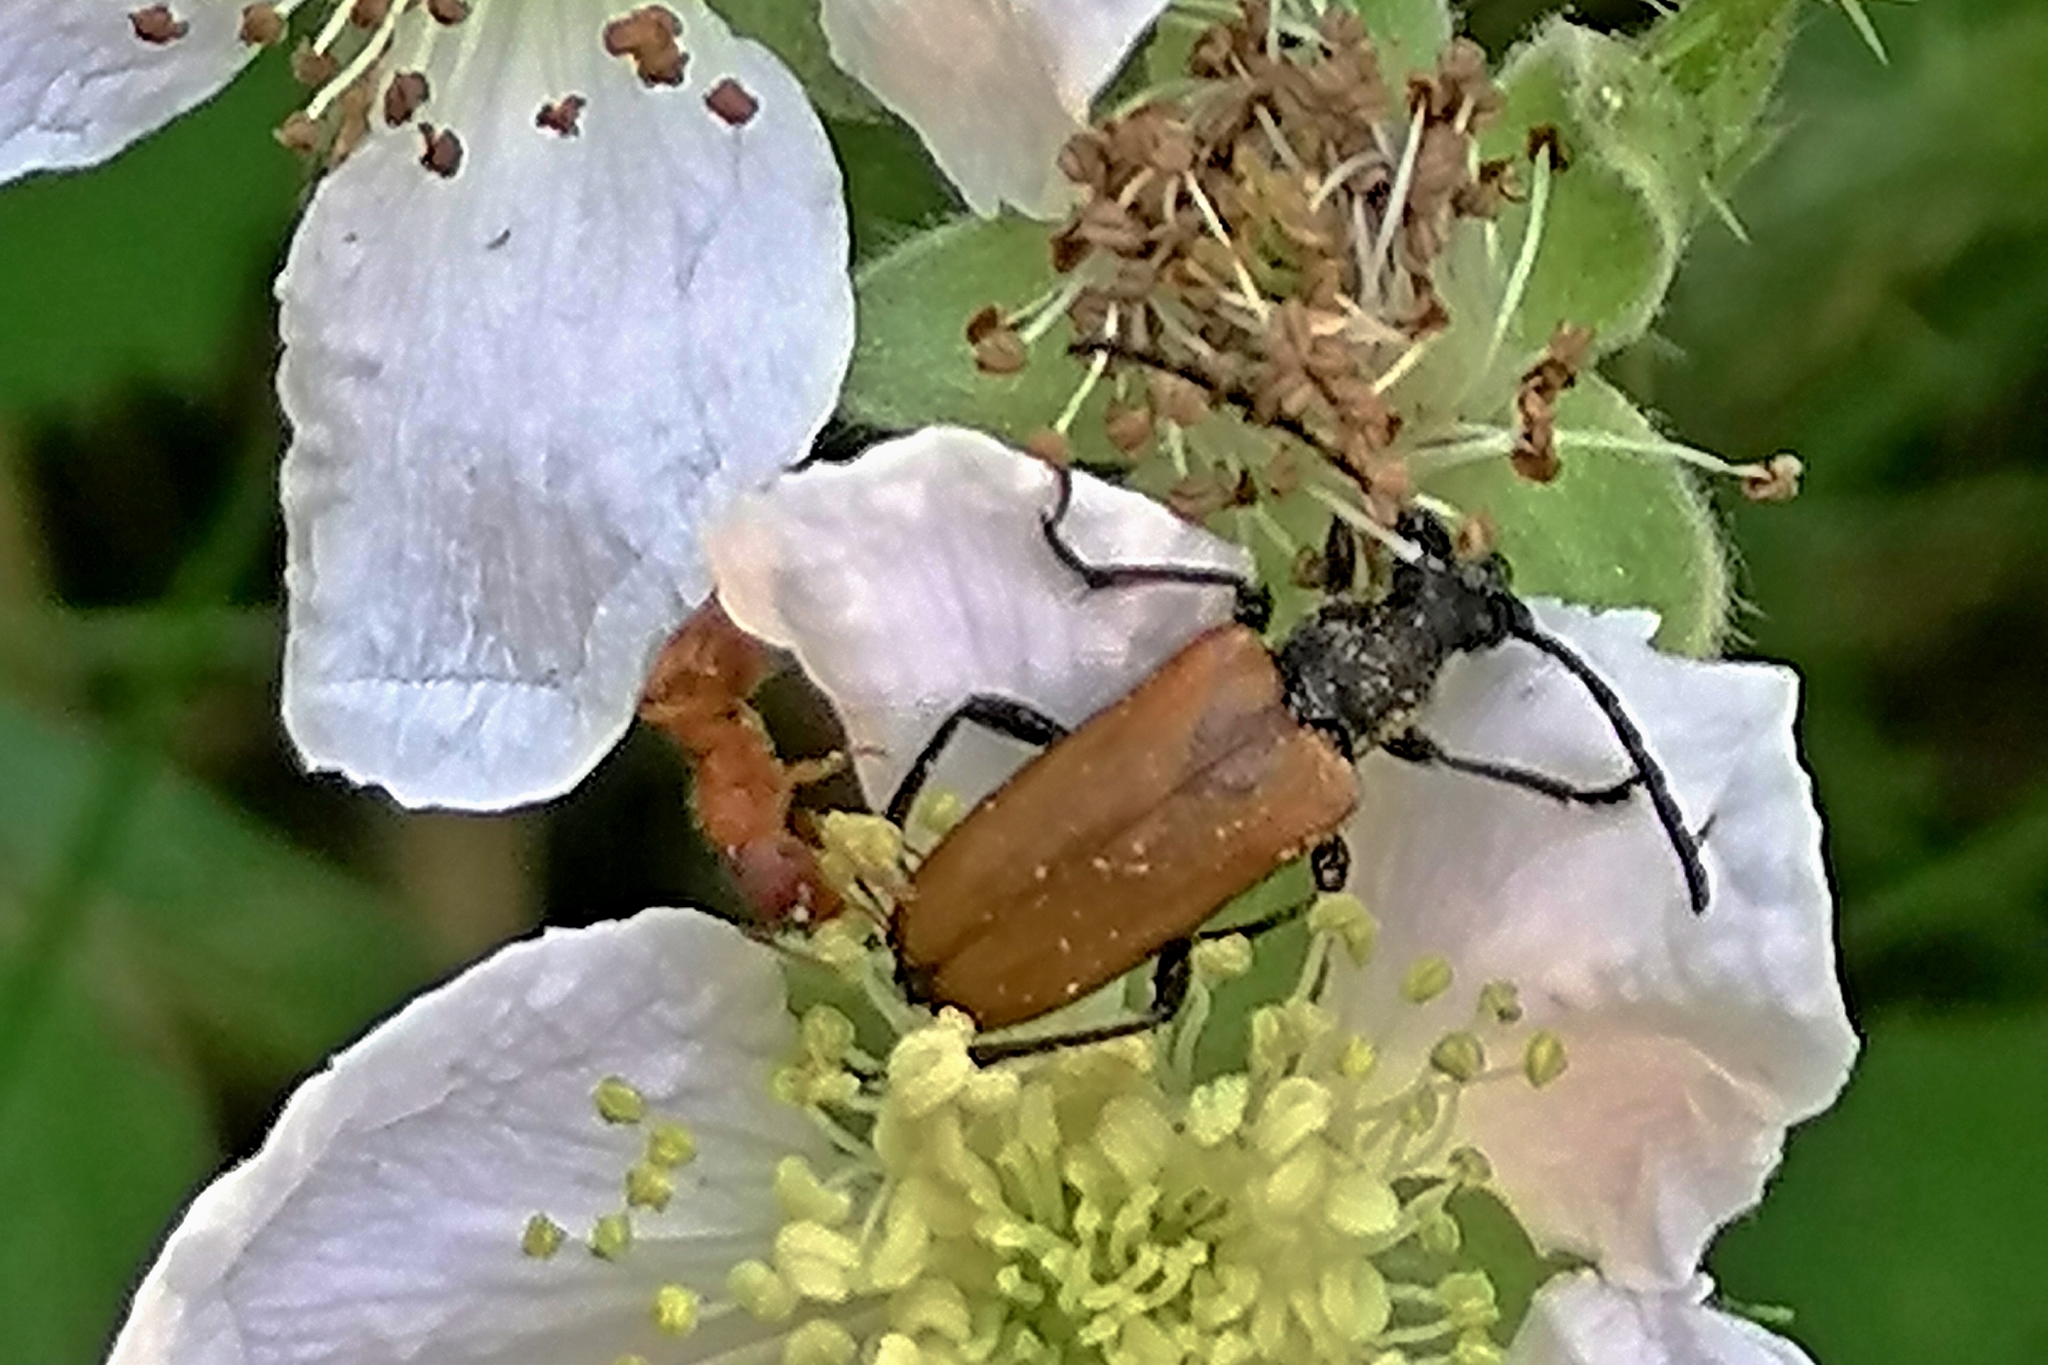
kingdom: Animalia
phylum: Arthropoda
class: Insecta
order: Coleoptera
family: Cerambycidae
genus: Paracorymbia
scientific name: Paracorymbia maculicornis
